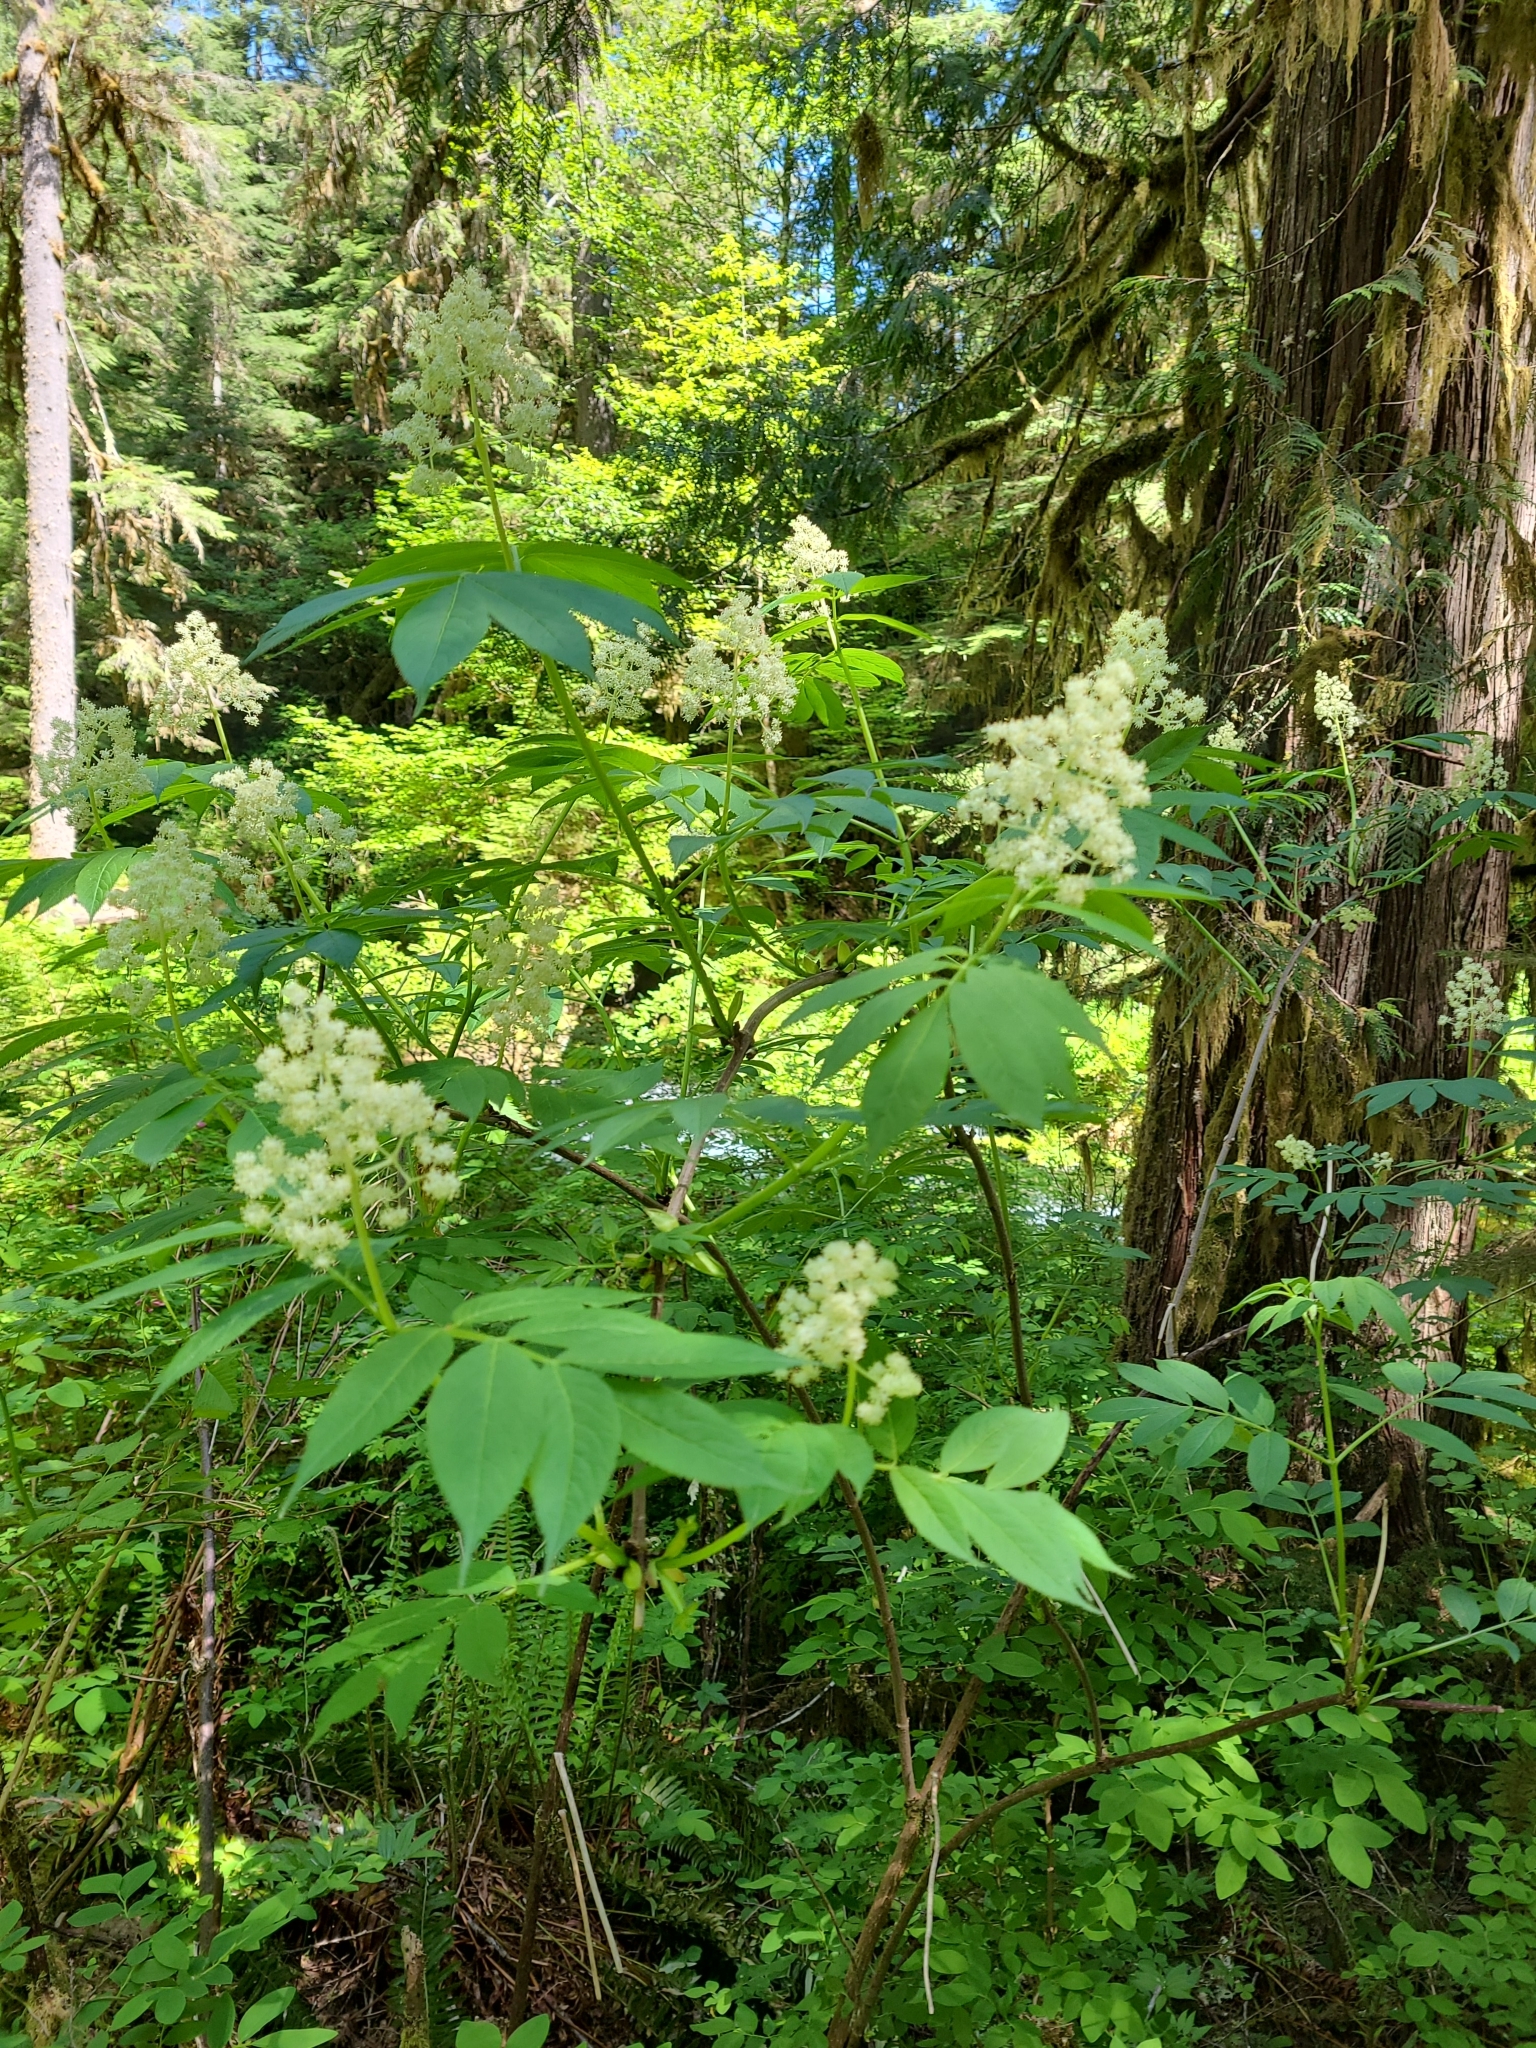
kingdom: Plantae
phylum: Tracheophyta
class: Magnoliopsida
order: Dipsacales
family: Viburnaceae
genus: Sambucus
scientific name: Sambucus racemosa
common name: Red-berried elder
